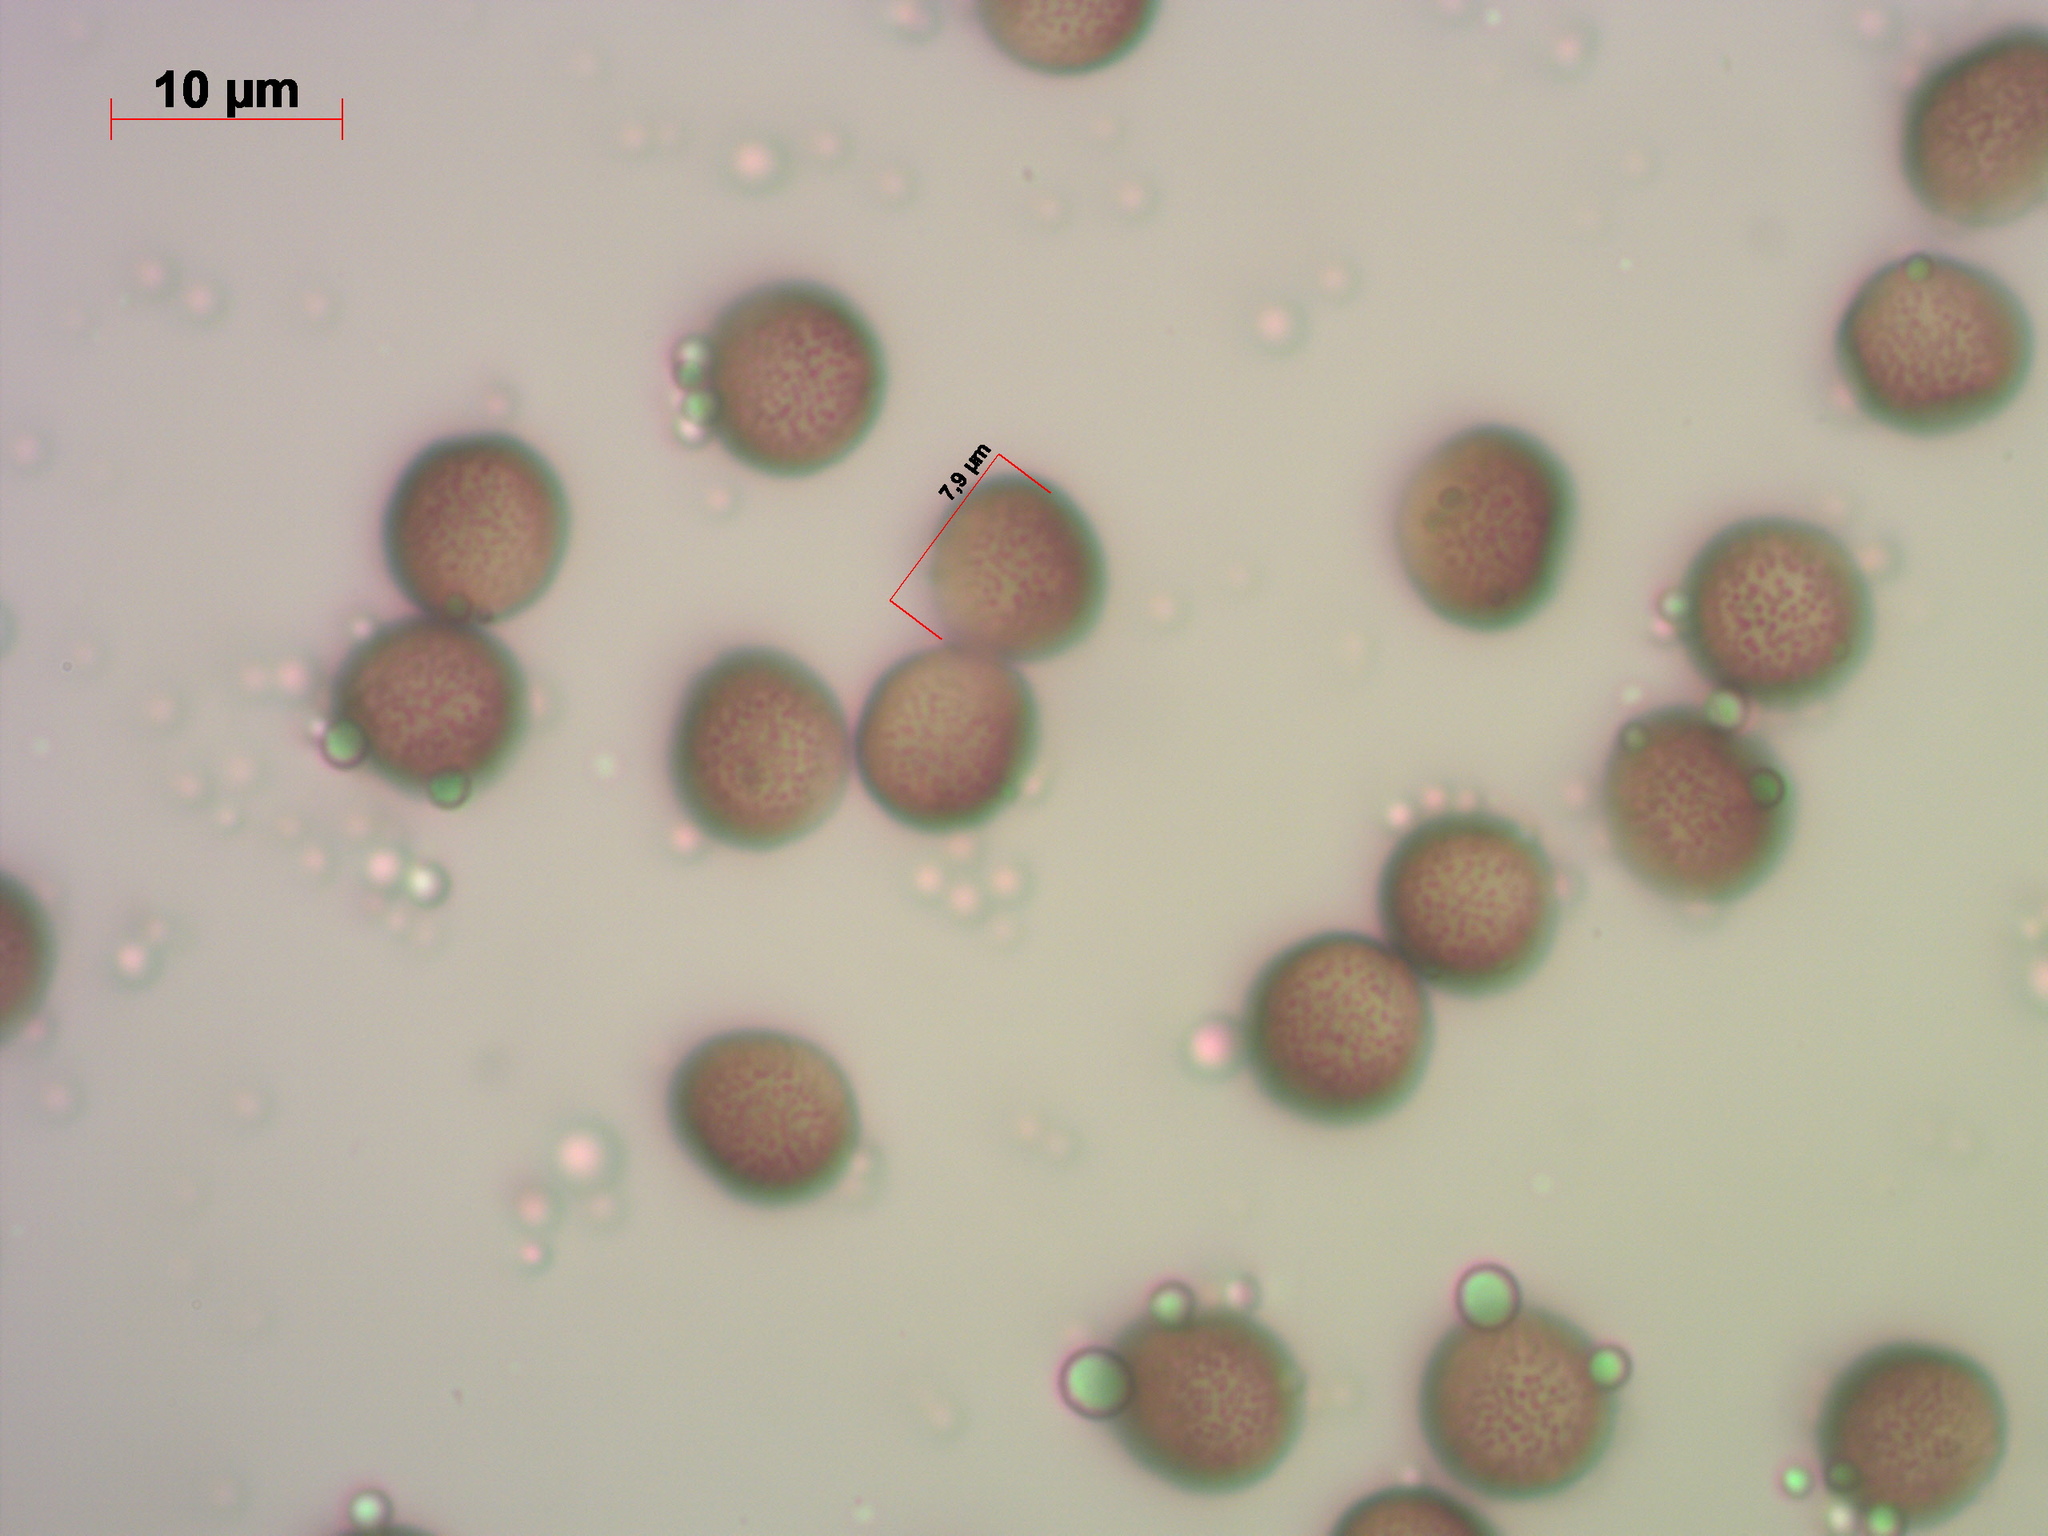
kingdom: Protozoa
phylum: Mycetozoa
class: Myxomycetes
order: Physarales
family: Physaraceae
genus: Fuligo
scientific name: Fuligo septica
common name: Dog vomit slime mold
